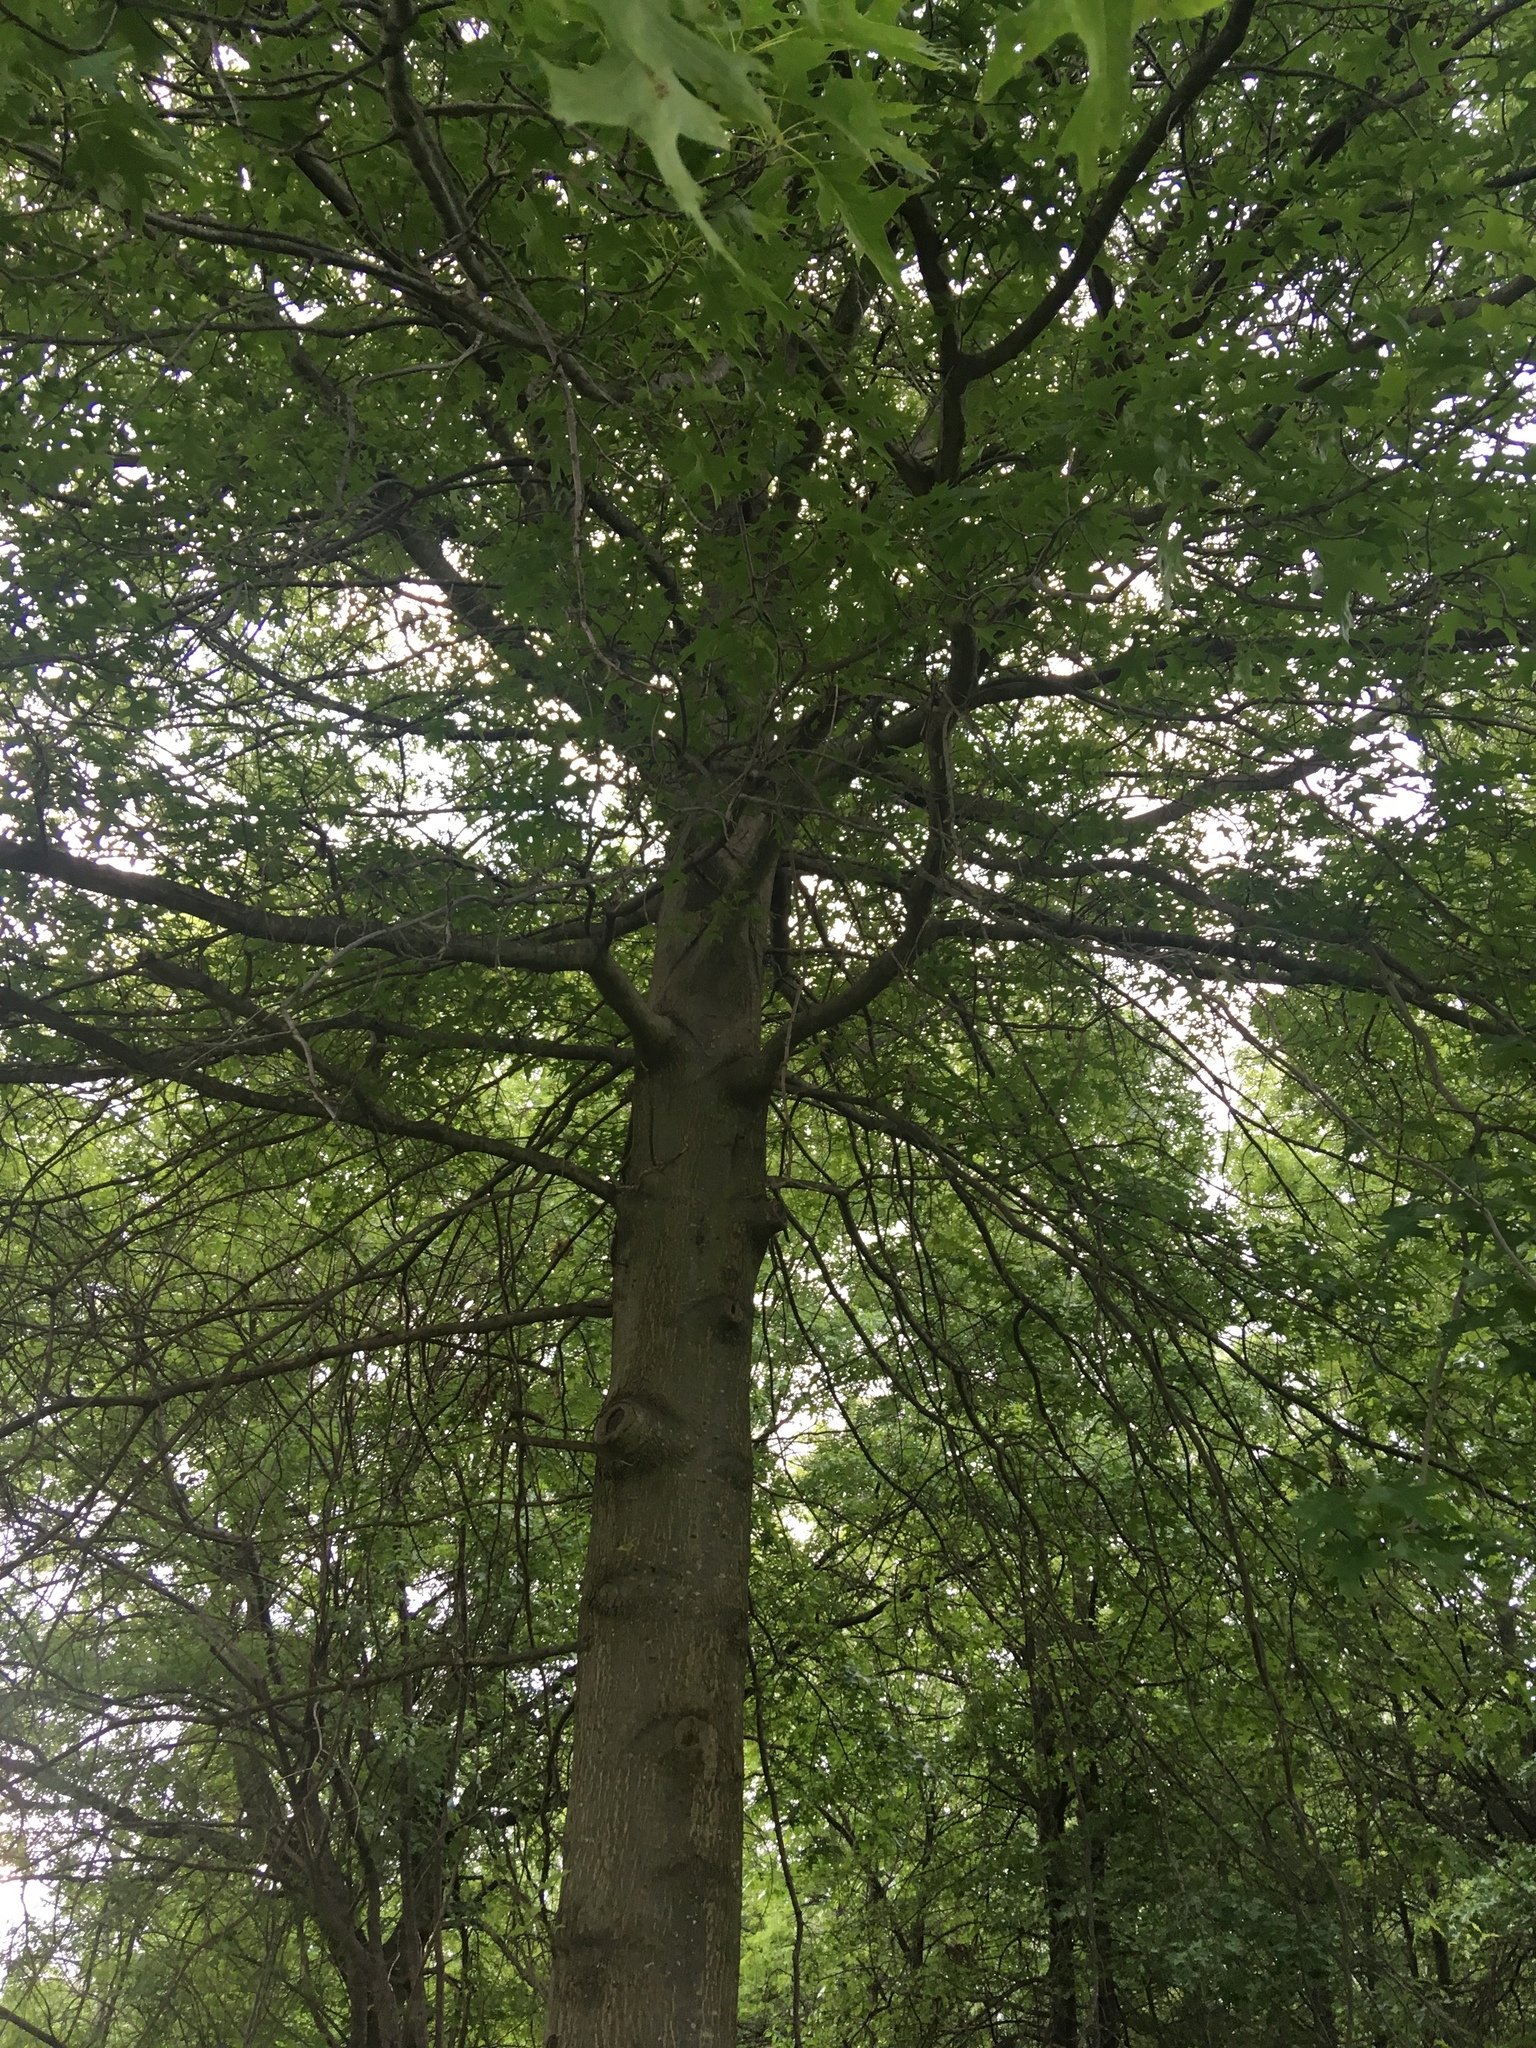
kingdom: Plantae
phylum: Tracheophyta
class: Magnoliopsida
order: Fagales
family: Fagaceae
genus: Quercus
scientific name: Quercus palustris
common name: Pin oak
